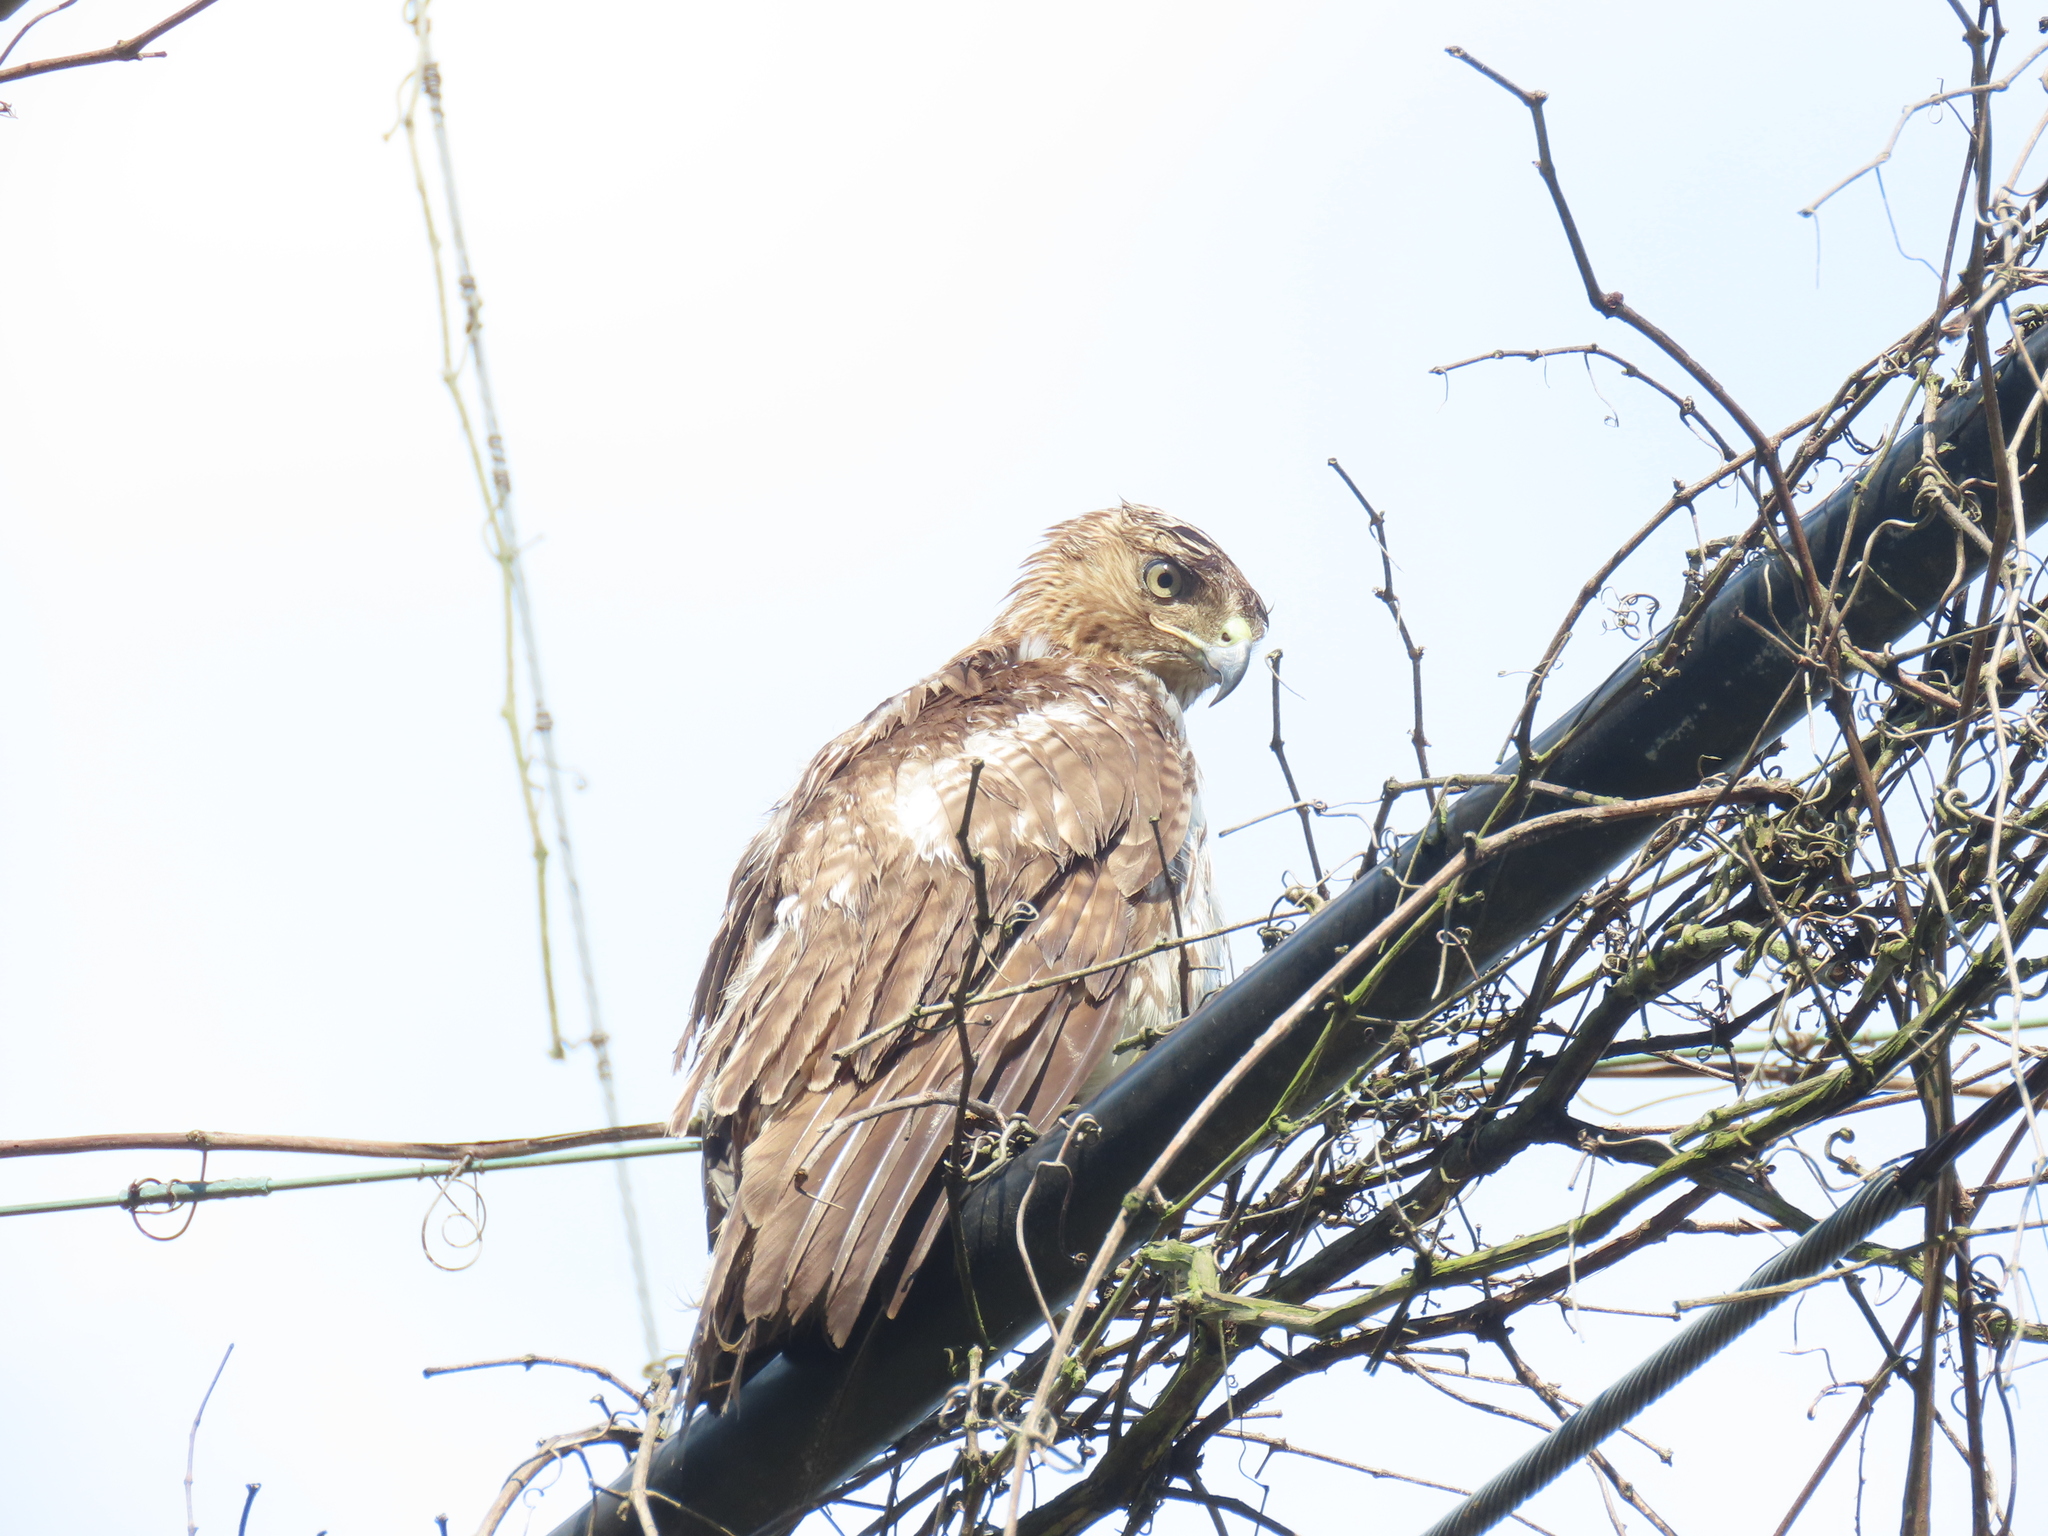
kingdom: Animalia
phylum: Chordata
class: Aves
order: Accipitriformes
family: Accipitridae
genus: Buteo
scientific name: Buteo jamaicensis
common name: Red-tailed hawk
